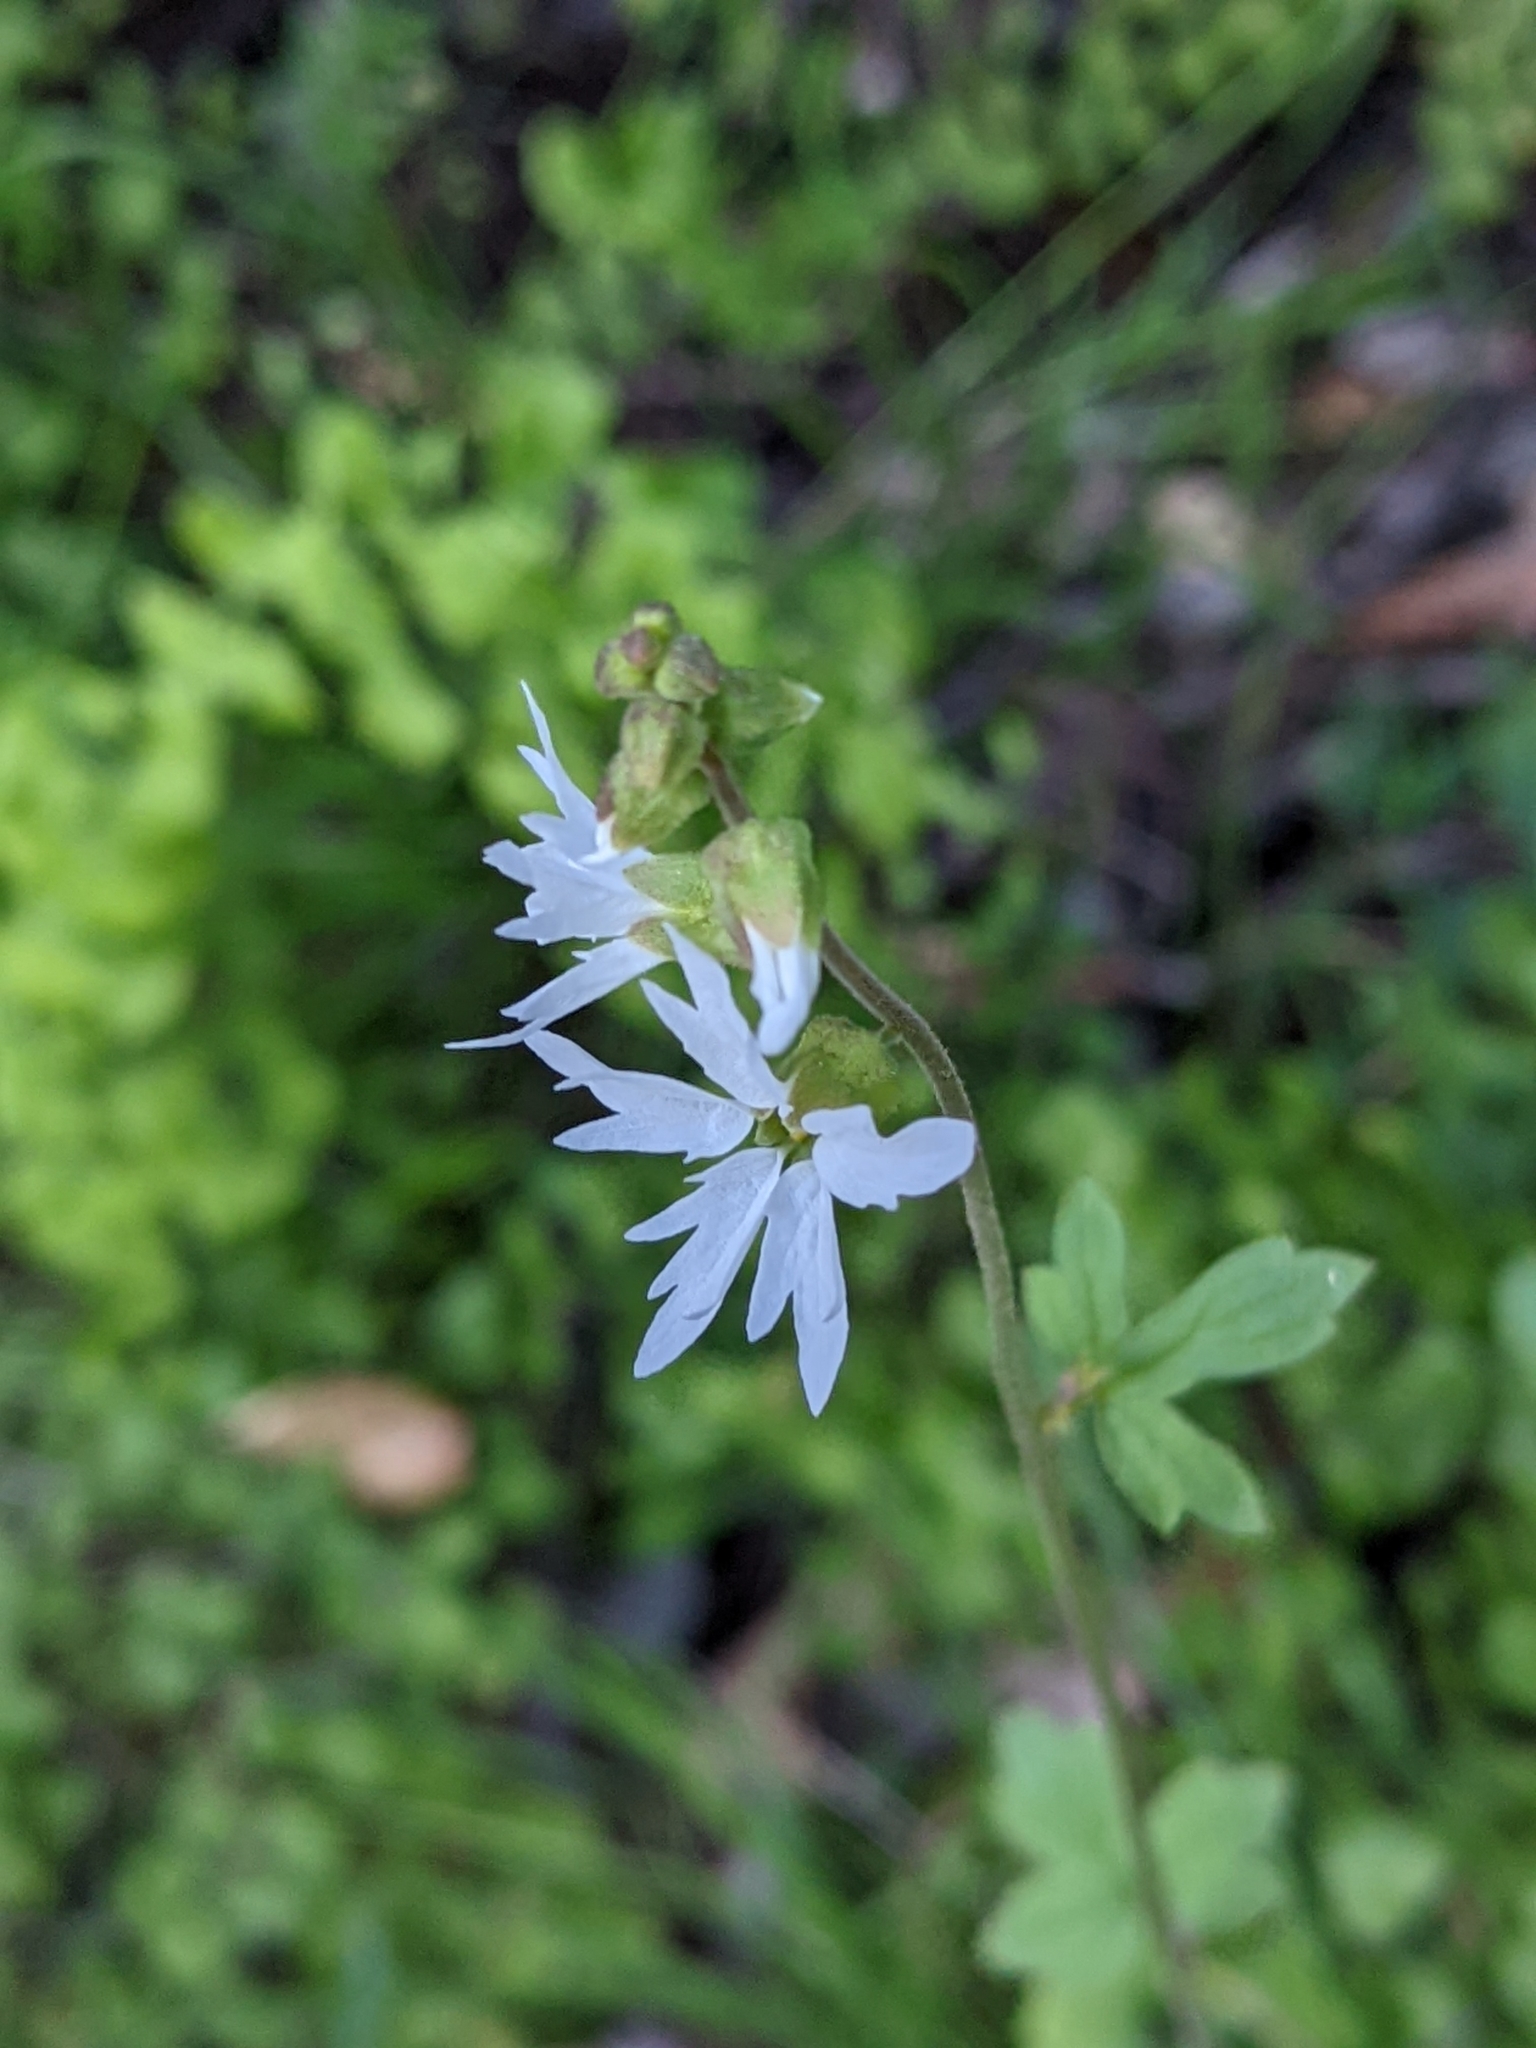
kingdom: Plantae
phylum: Tracheophyta
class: Magnoliopsida
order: Saxifragales
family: Saxifragaceae
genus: Lithophragma
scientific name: Lithophragma heterophyllum
